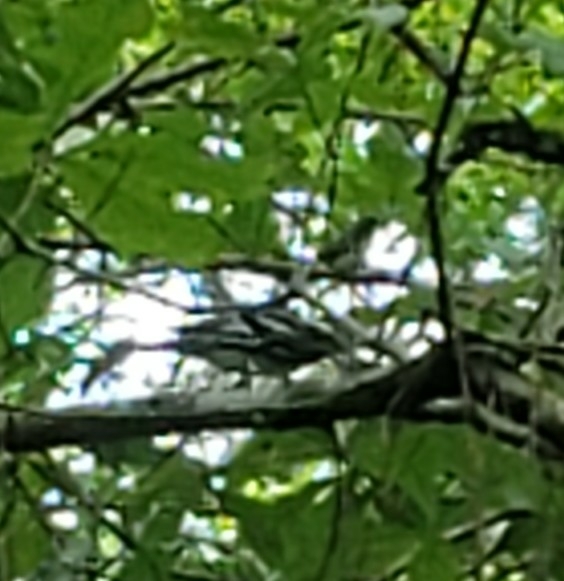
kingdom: Animalia
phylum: Chordata
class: Aves
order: Passeriformes
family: Parulidae
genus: Mniotilta
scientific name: Mniotilta varia
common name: Black-and-white warbler
